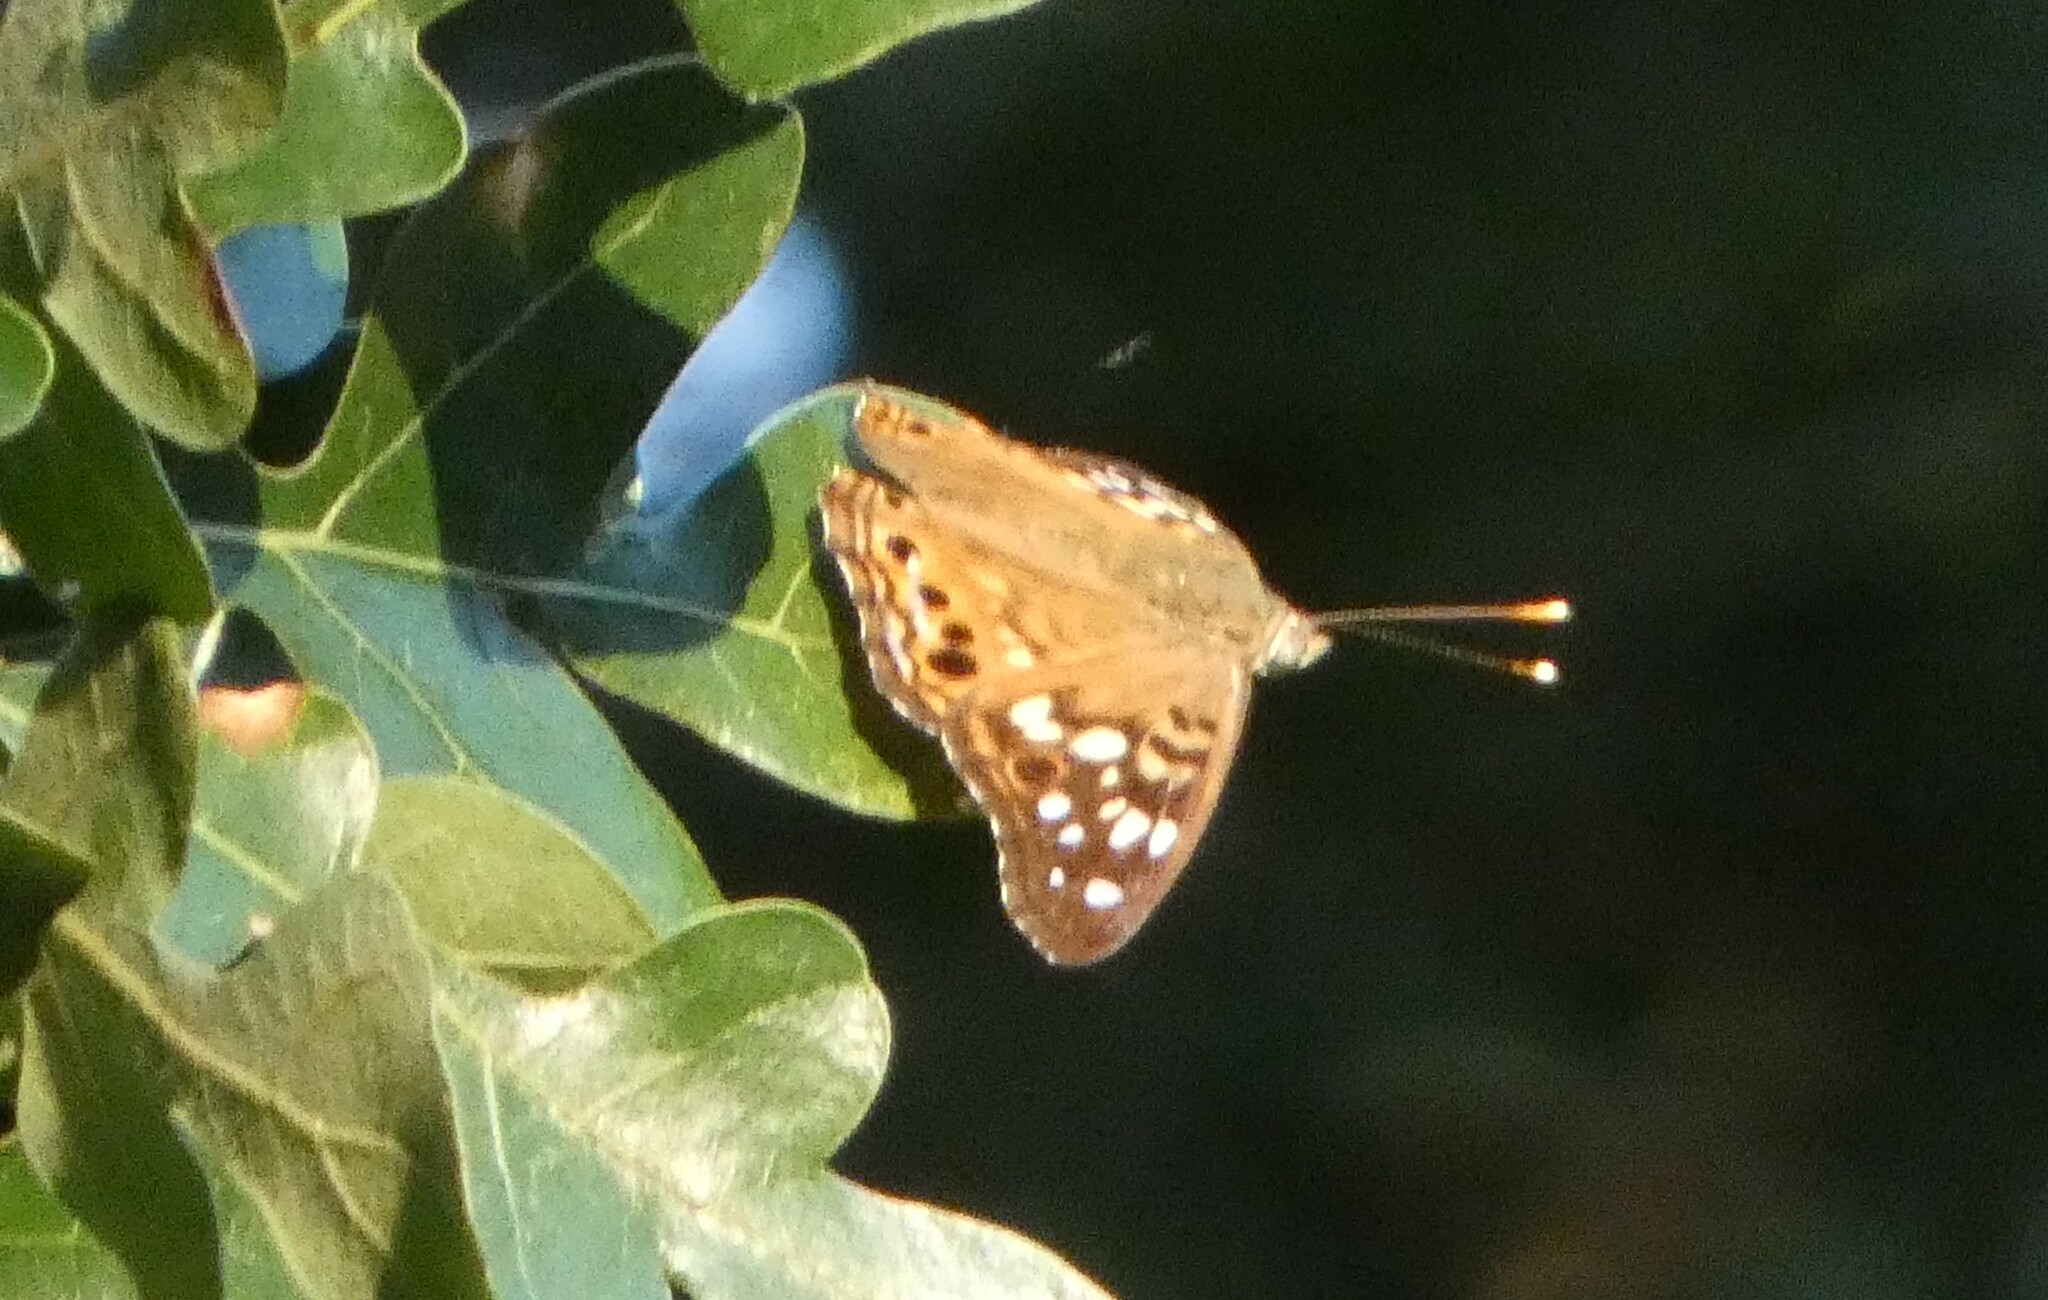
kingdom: Animalia
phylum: Arthropoda
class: Insecta
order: Lepidoptera
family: Nymphalidae
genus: Asterocampa
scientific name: Asterocampa celtis
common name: Hackberry emperor
